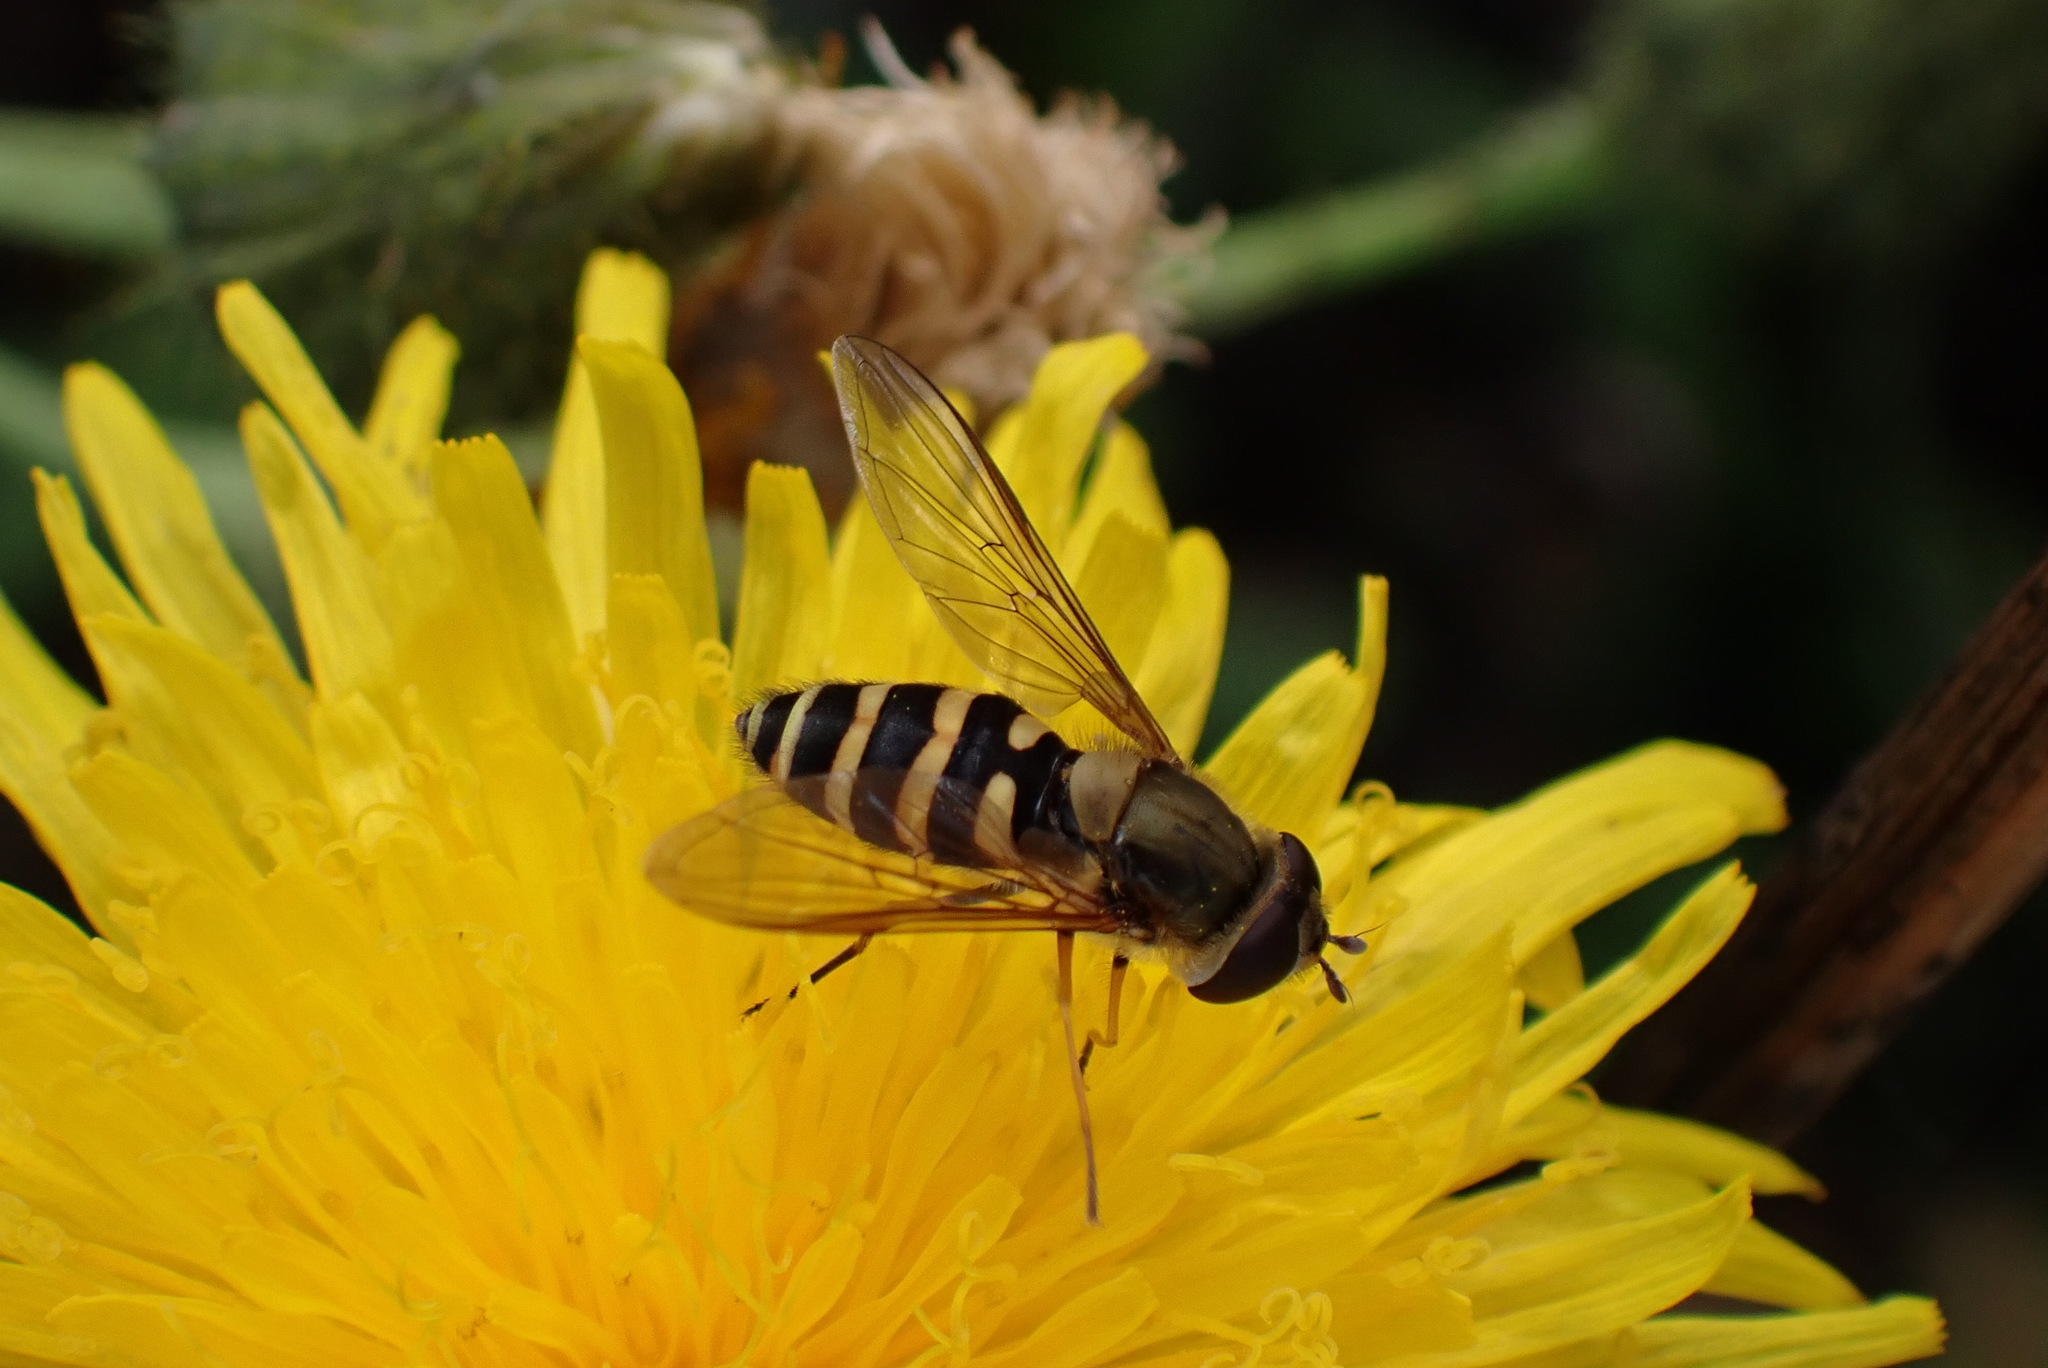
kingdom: Animalia
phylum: Arthropoda
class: Insecta
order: Diptera
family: Syrphidae
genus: Syrphus
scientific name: Syrphus
